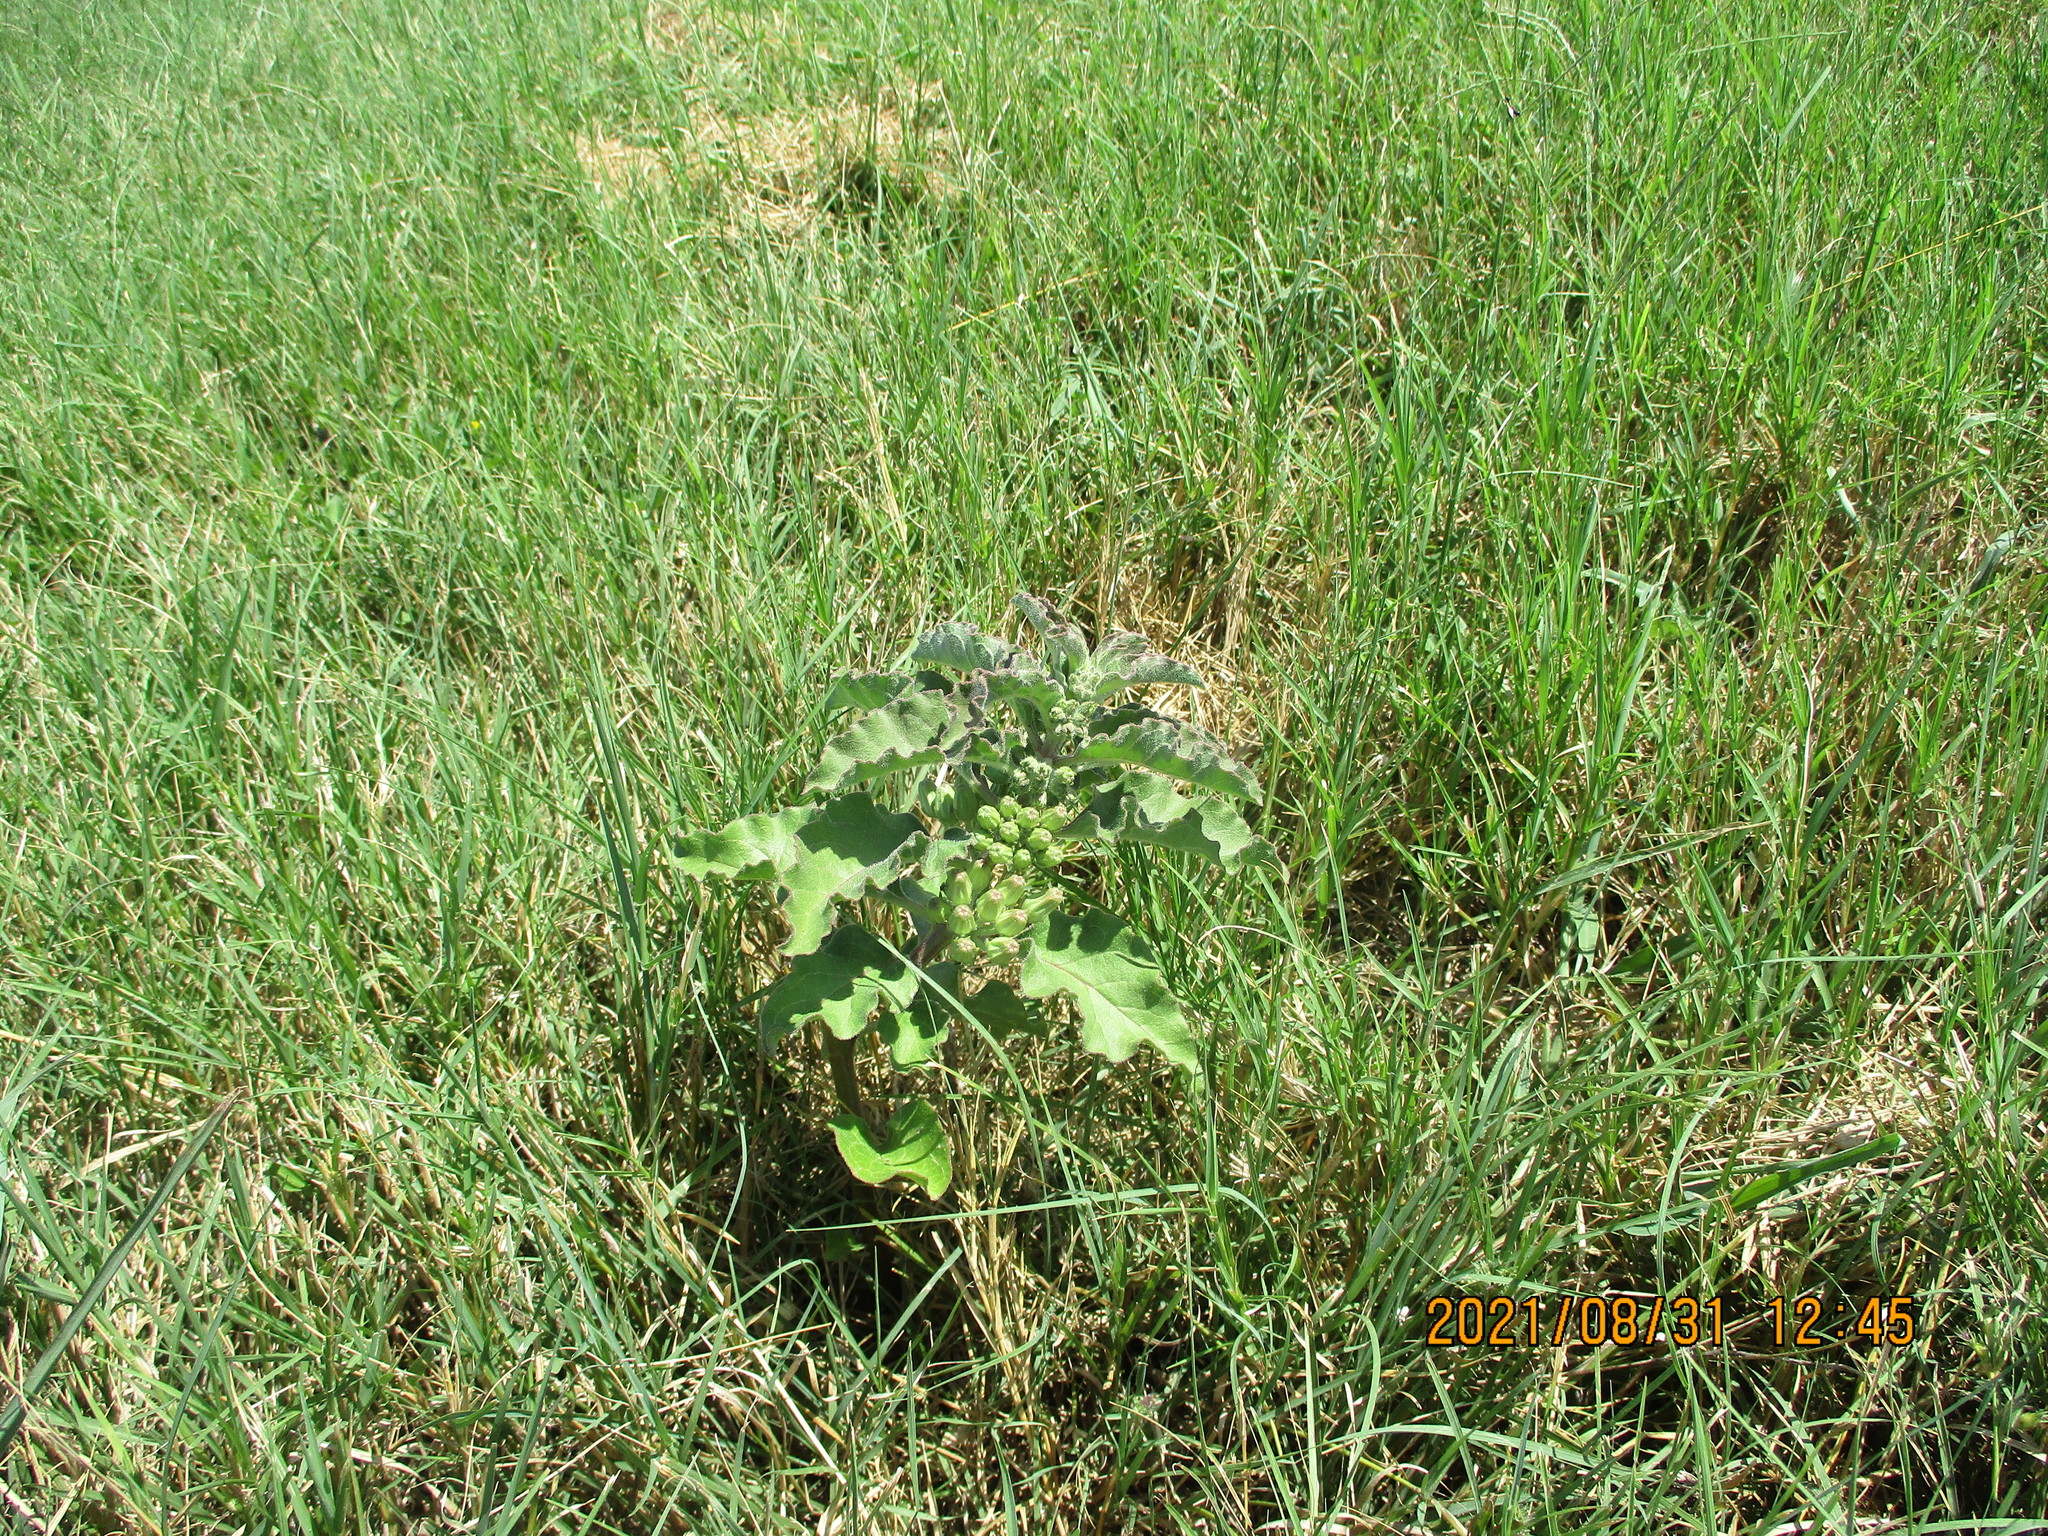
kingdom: Plantae
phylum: Tracheophyta
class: Magnoliopsida
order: Gentianales
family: Apocynaceae
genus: Asclepias
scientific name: Asclepias oenotheroides
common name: Zizotes milkweed
